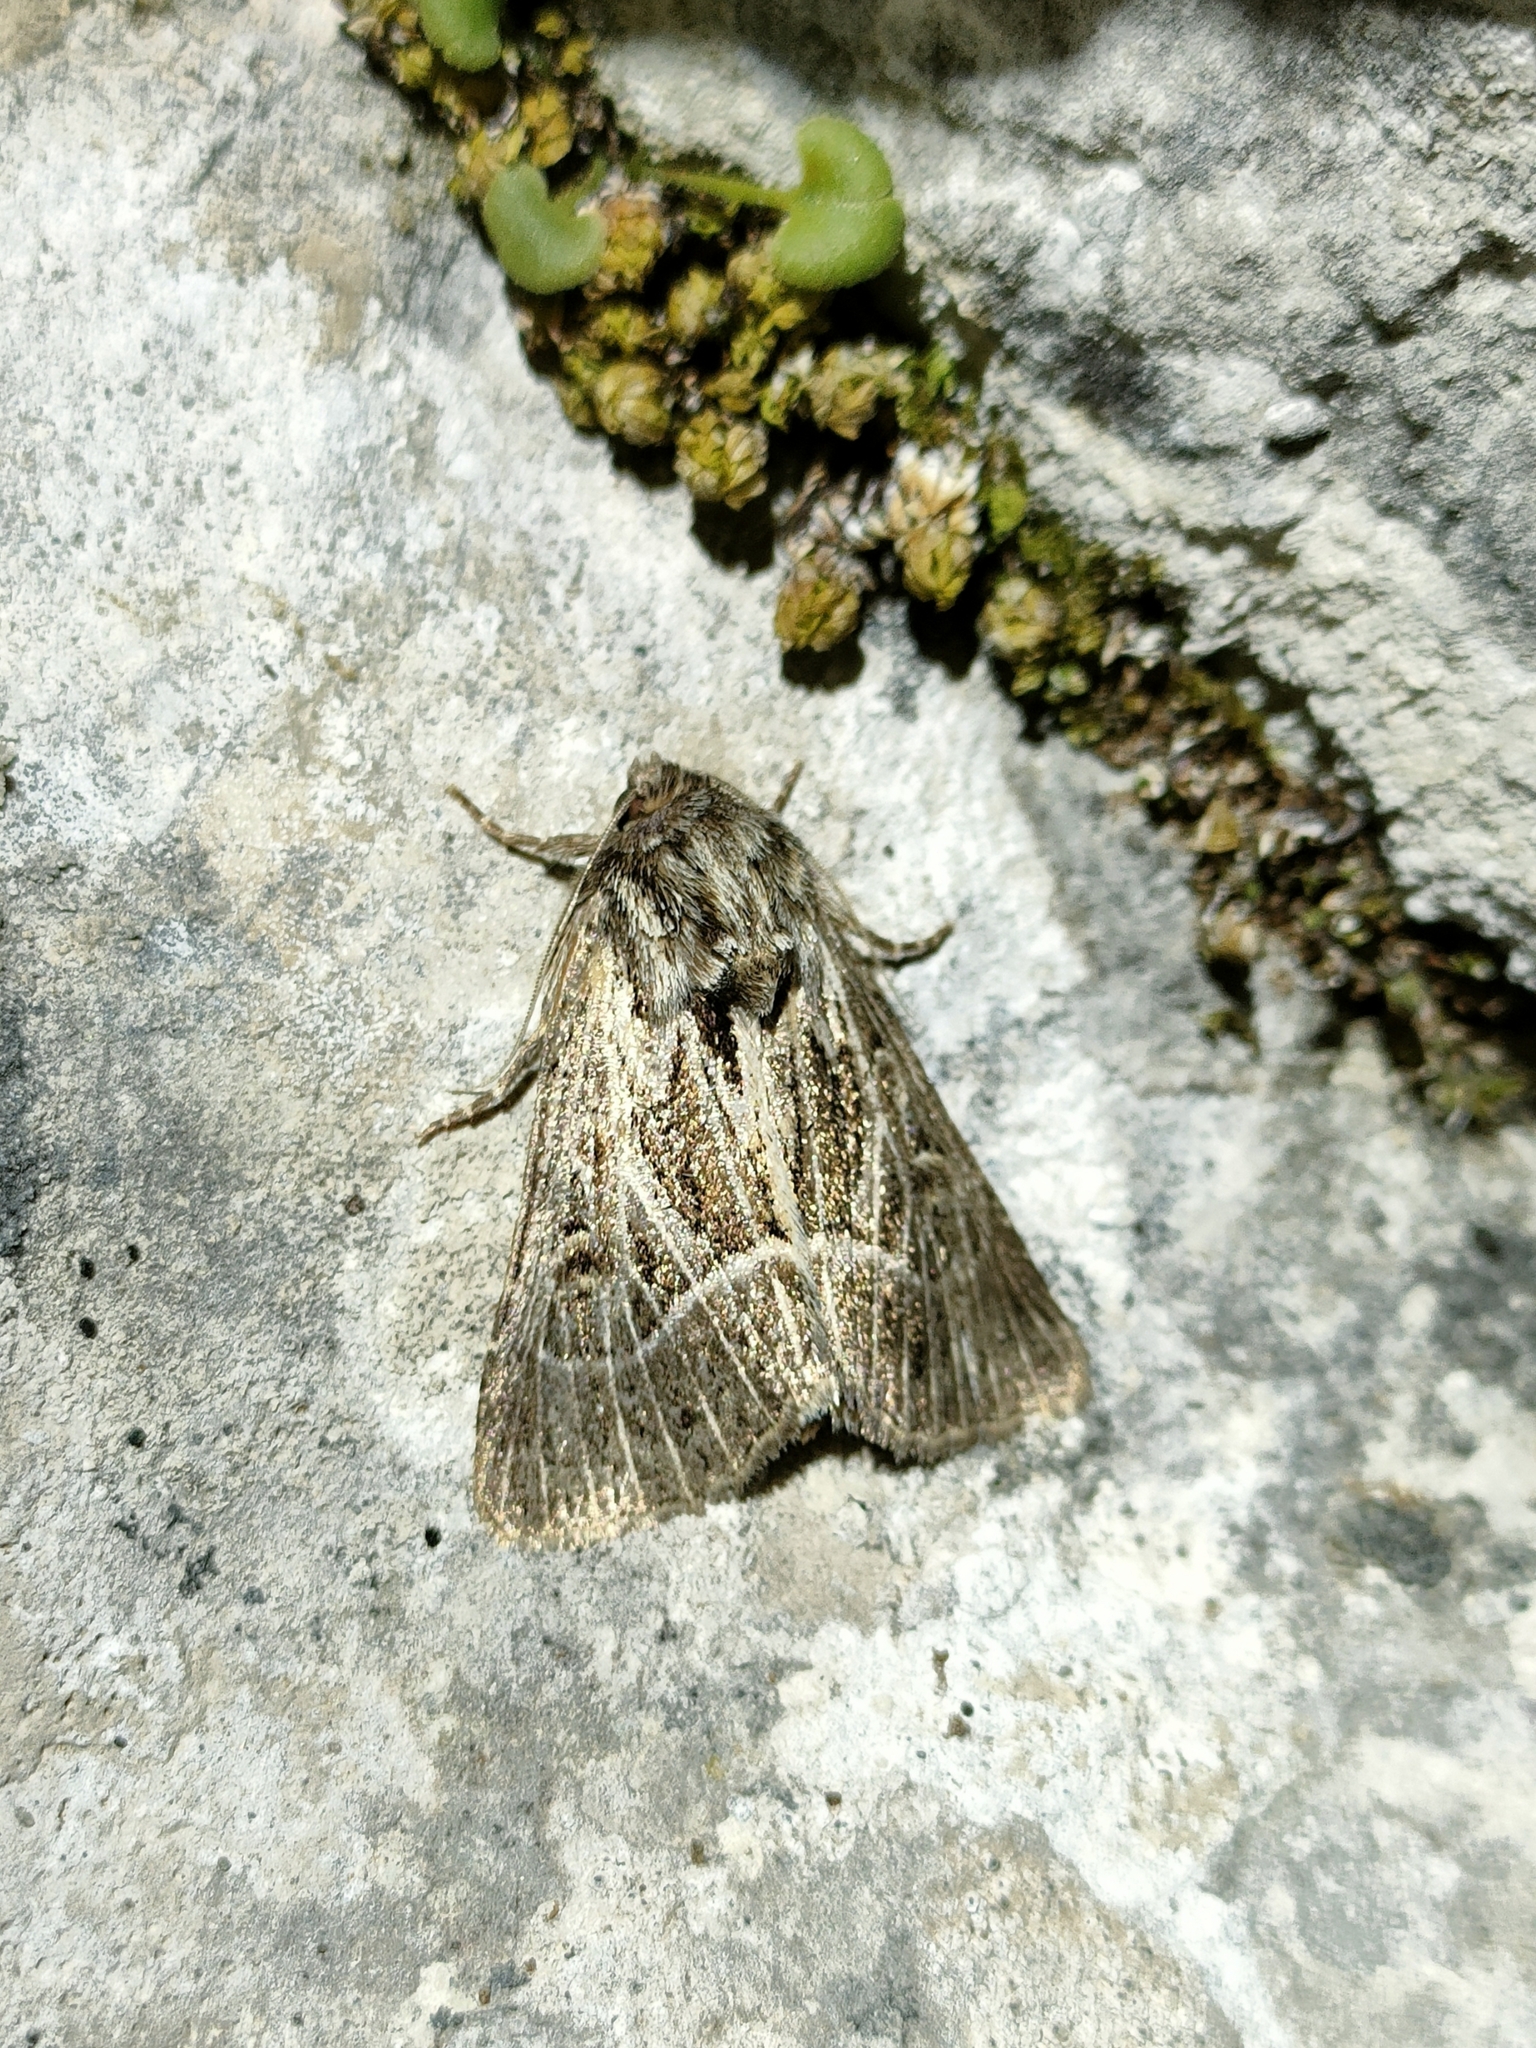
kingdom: Animalia
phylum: Arthropoda
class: Insecta
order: Lepidoptera
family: Noctuidae
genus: Thalpophila
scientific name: Thalpophila vitalba
